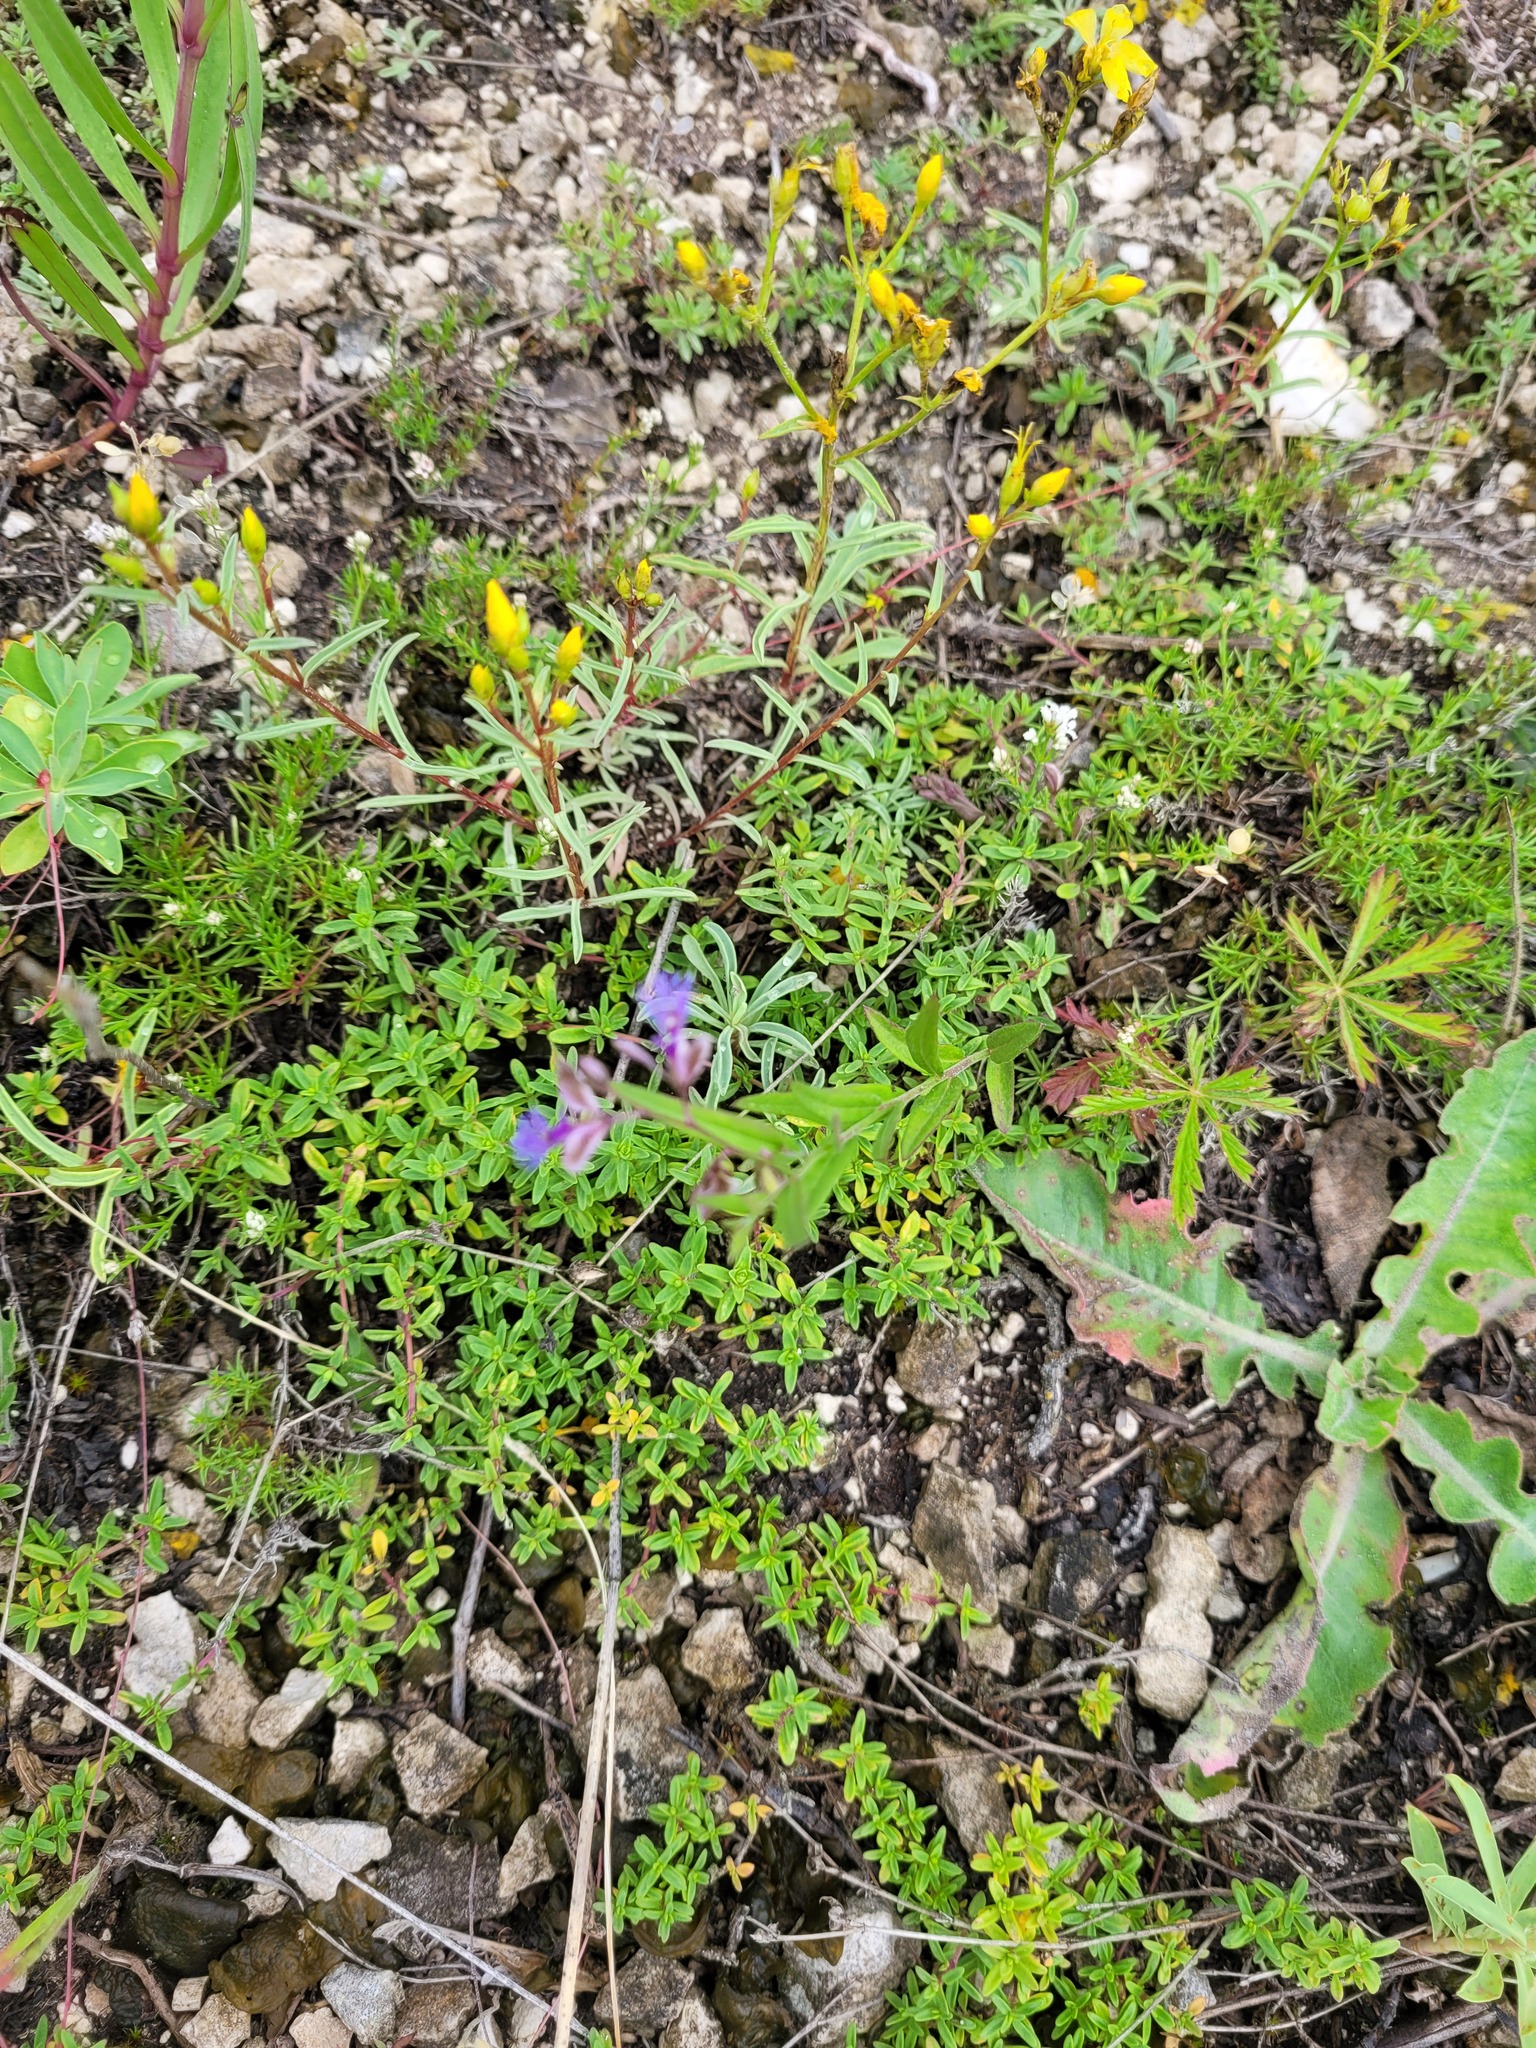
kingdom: Plantae
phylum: Tracheophyta
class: Magnoliopsida
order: Fabales
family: Polygalaceae
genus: Polygala
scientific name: Polygala sibirica
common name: Siberian polygala
